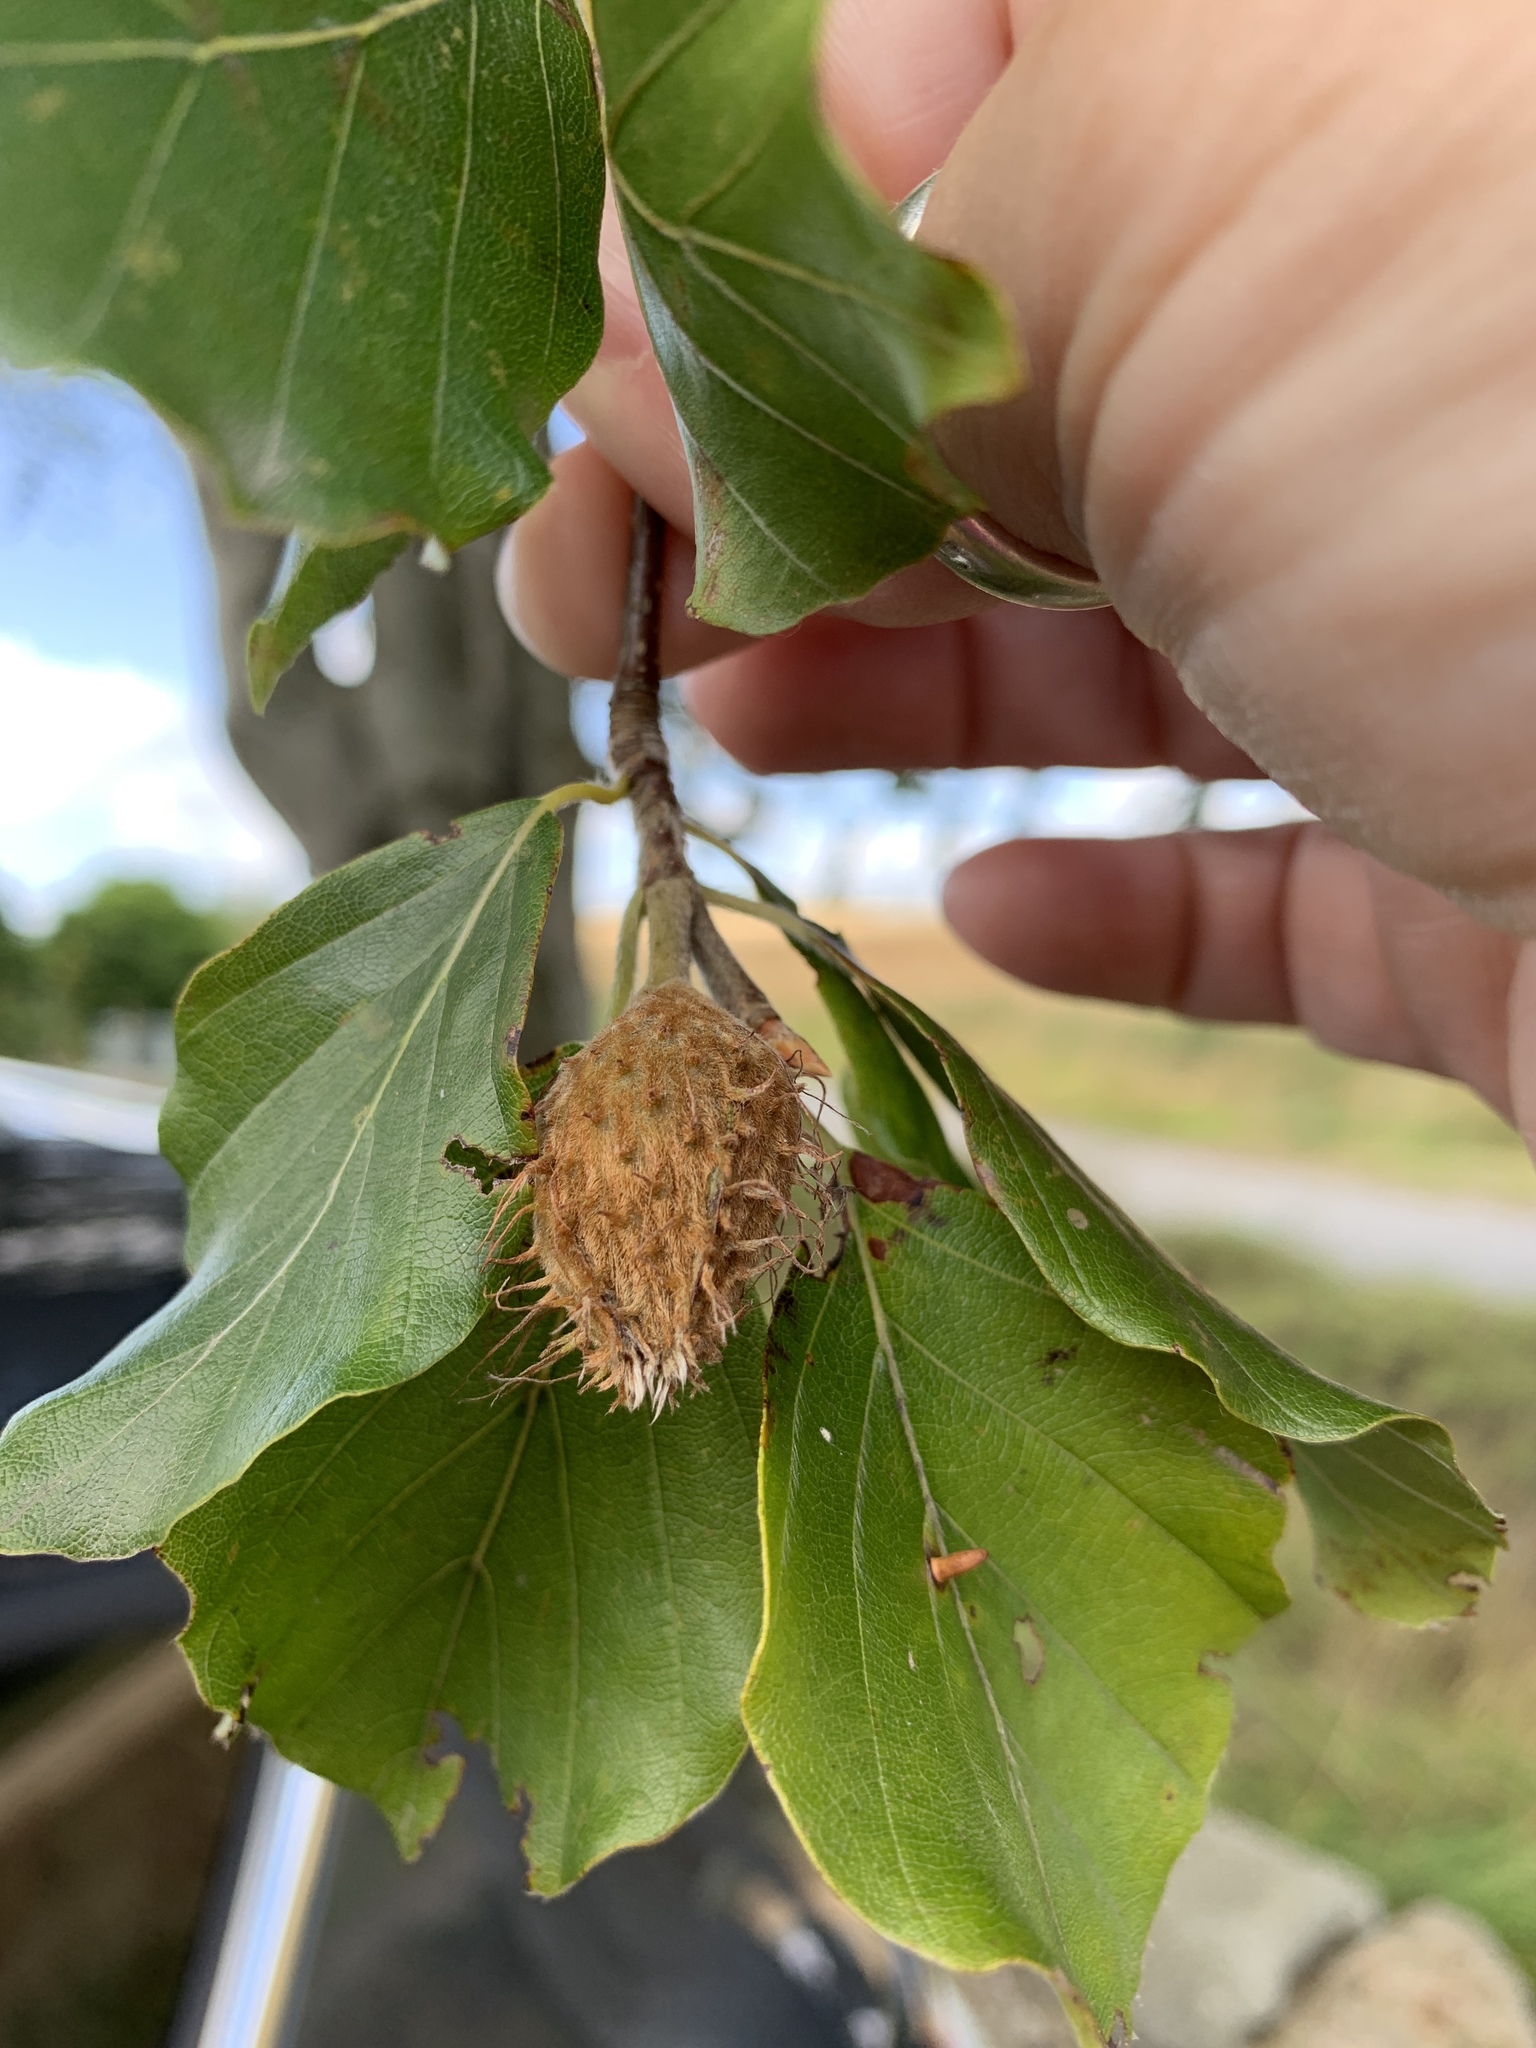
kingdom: Plantae
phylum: Tracheophyta
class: Magnoliopsida
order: Fagales
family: Fagaceae
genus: Fagus
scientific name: Fagus sylvatica
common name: Beech
